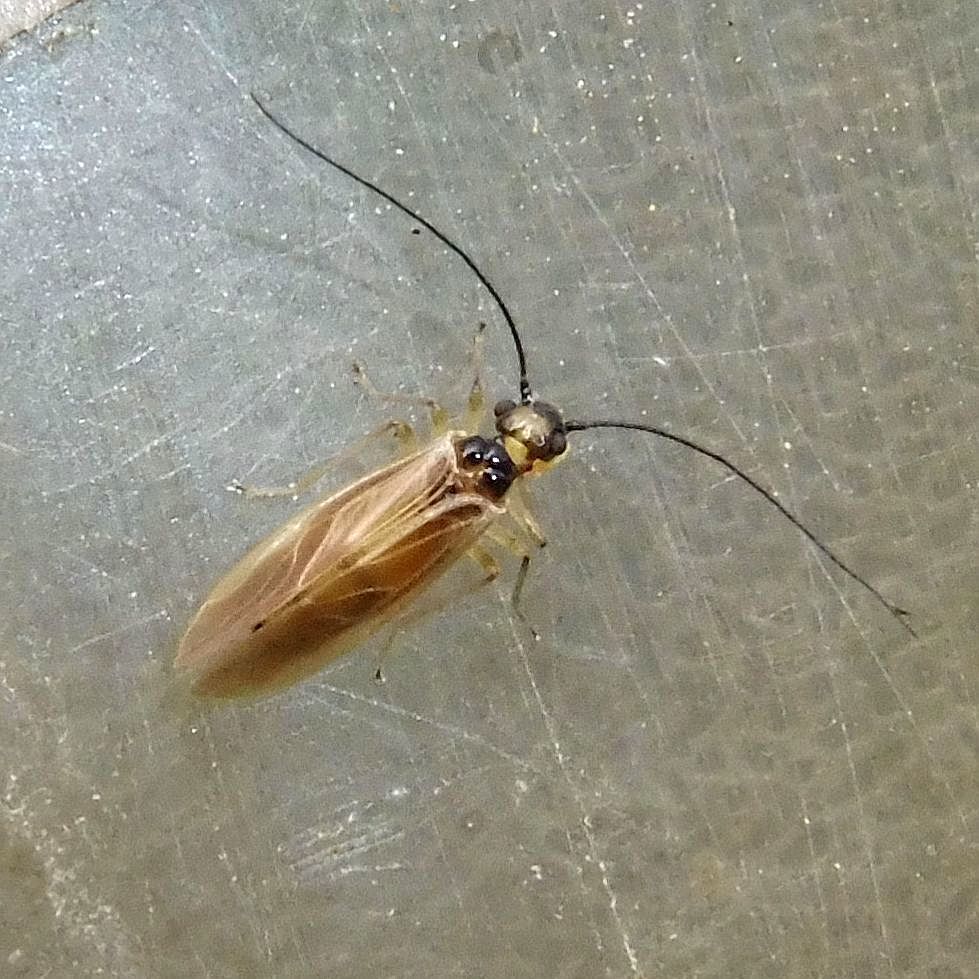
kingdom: Animalia
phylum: Arthropoda
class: Insecta
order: Psocodea
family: Caeciliusidae
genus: Valenzuela
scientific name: Valenzuela atricornis
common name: Lizard bark louse
